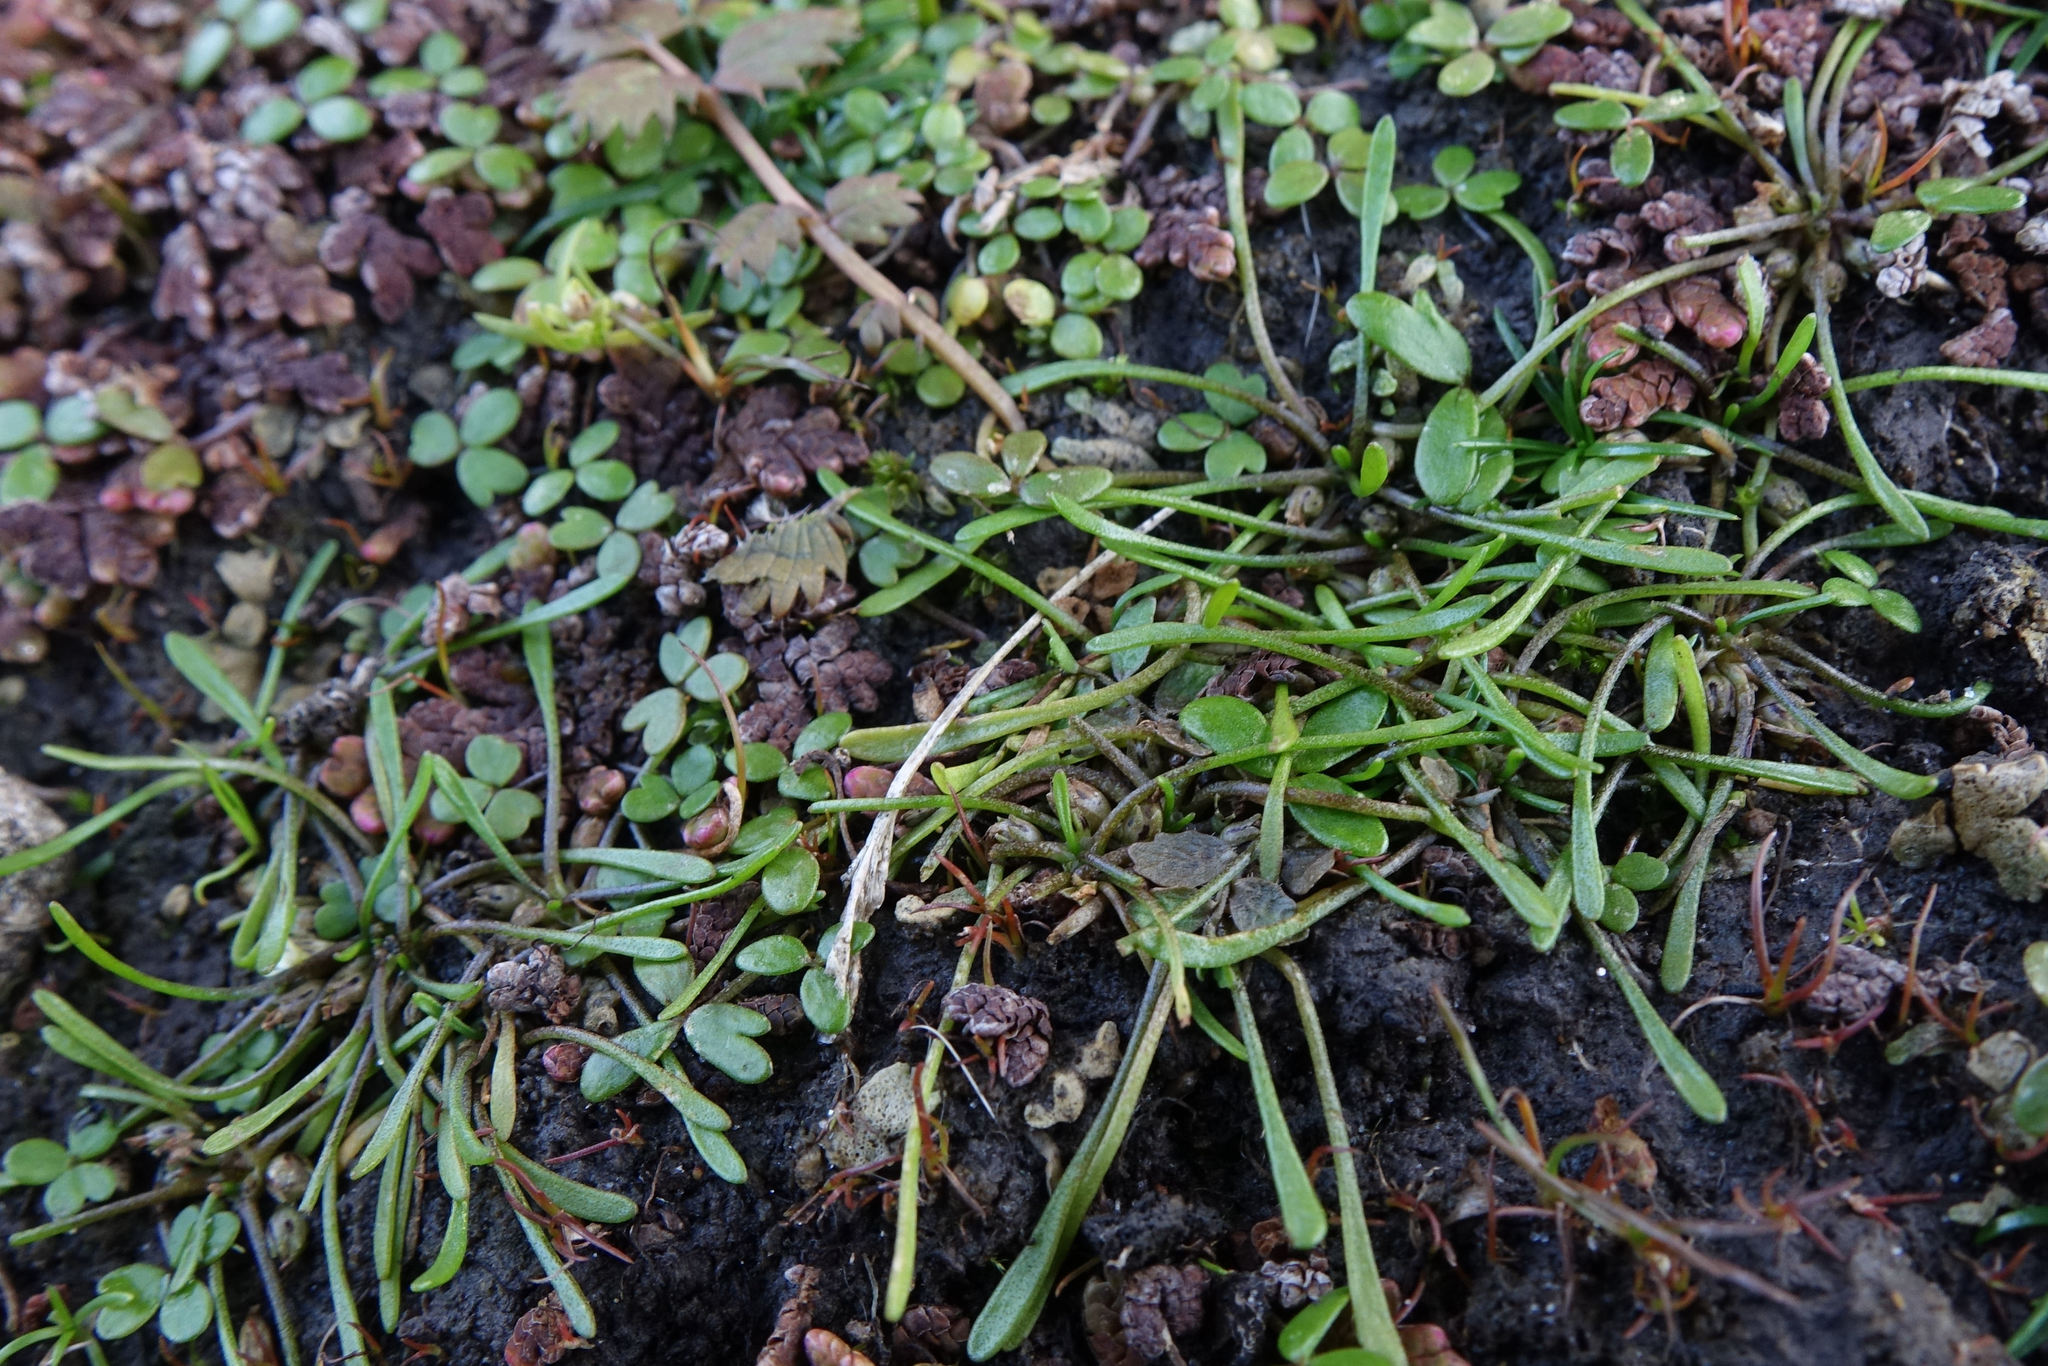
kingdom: Plantae
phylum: Tracheophyta
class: Magnoliopsida
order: Lamiales
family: Scrophulariaceae
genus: Limosella
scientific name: Limosella australis
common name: Welsh mudwort
